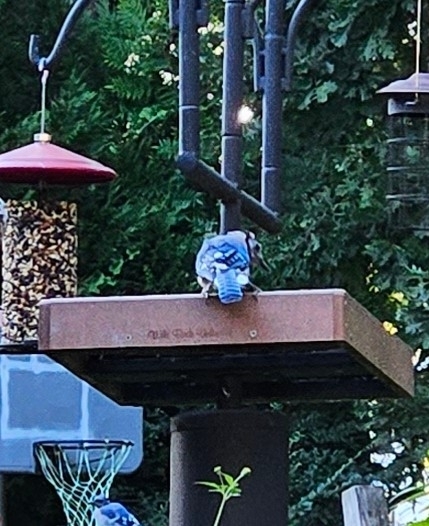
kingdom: Animalia
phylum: Chordata
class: Aves
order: Passeriformes
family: Corvidae
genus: Cyanocitta
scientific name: Cyanocitta cristata
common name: Blue jay
